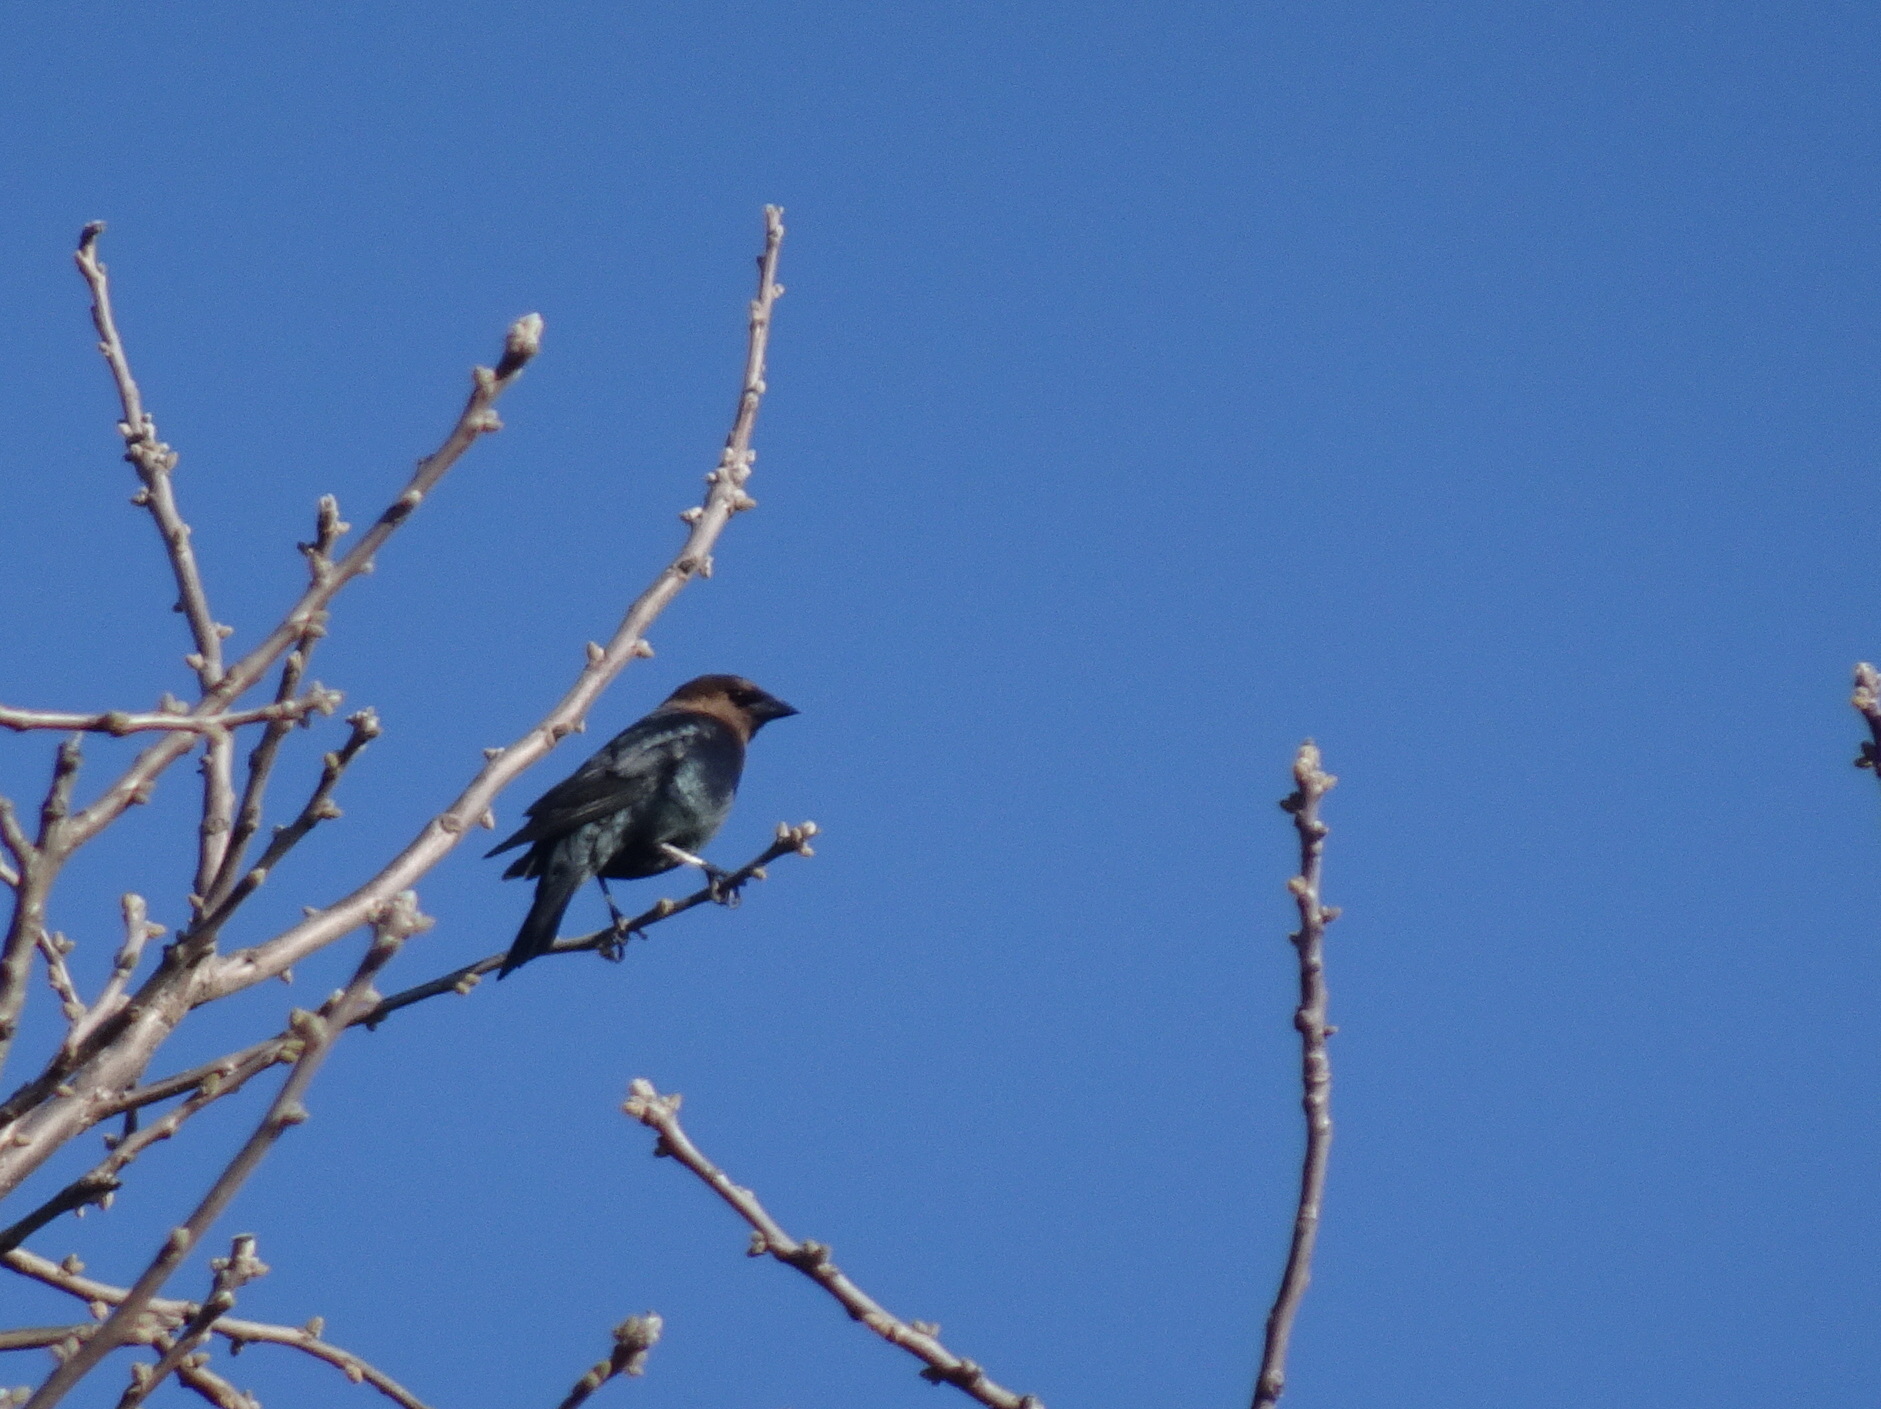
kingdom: Animalia
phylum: Chordata
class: Aves
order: Passeriformes
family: Icteridae
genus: Molothrus
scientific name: Molothrus ater
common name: Brown-headed cowbird
